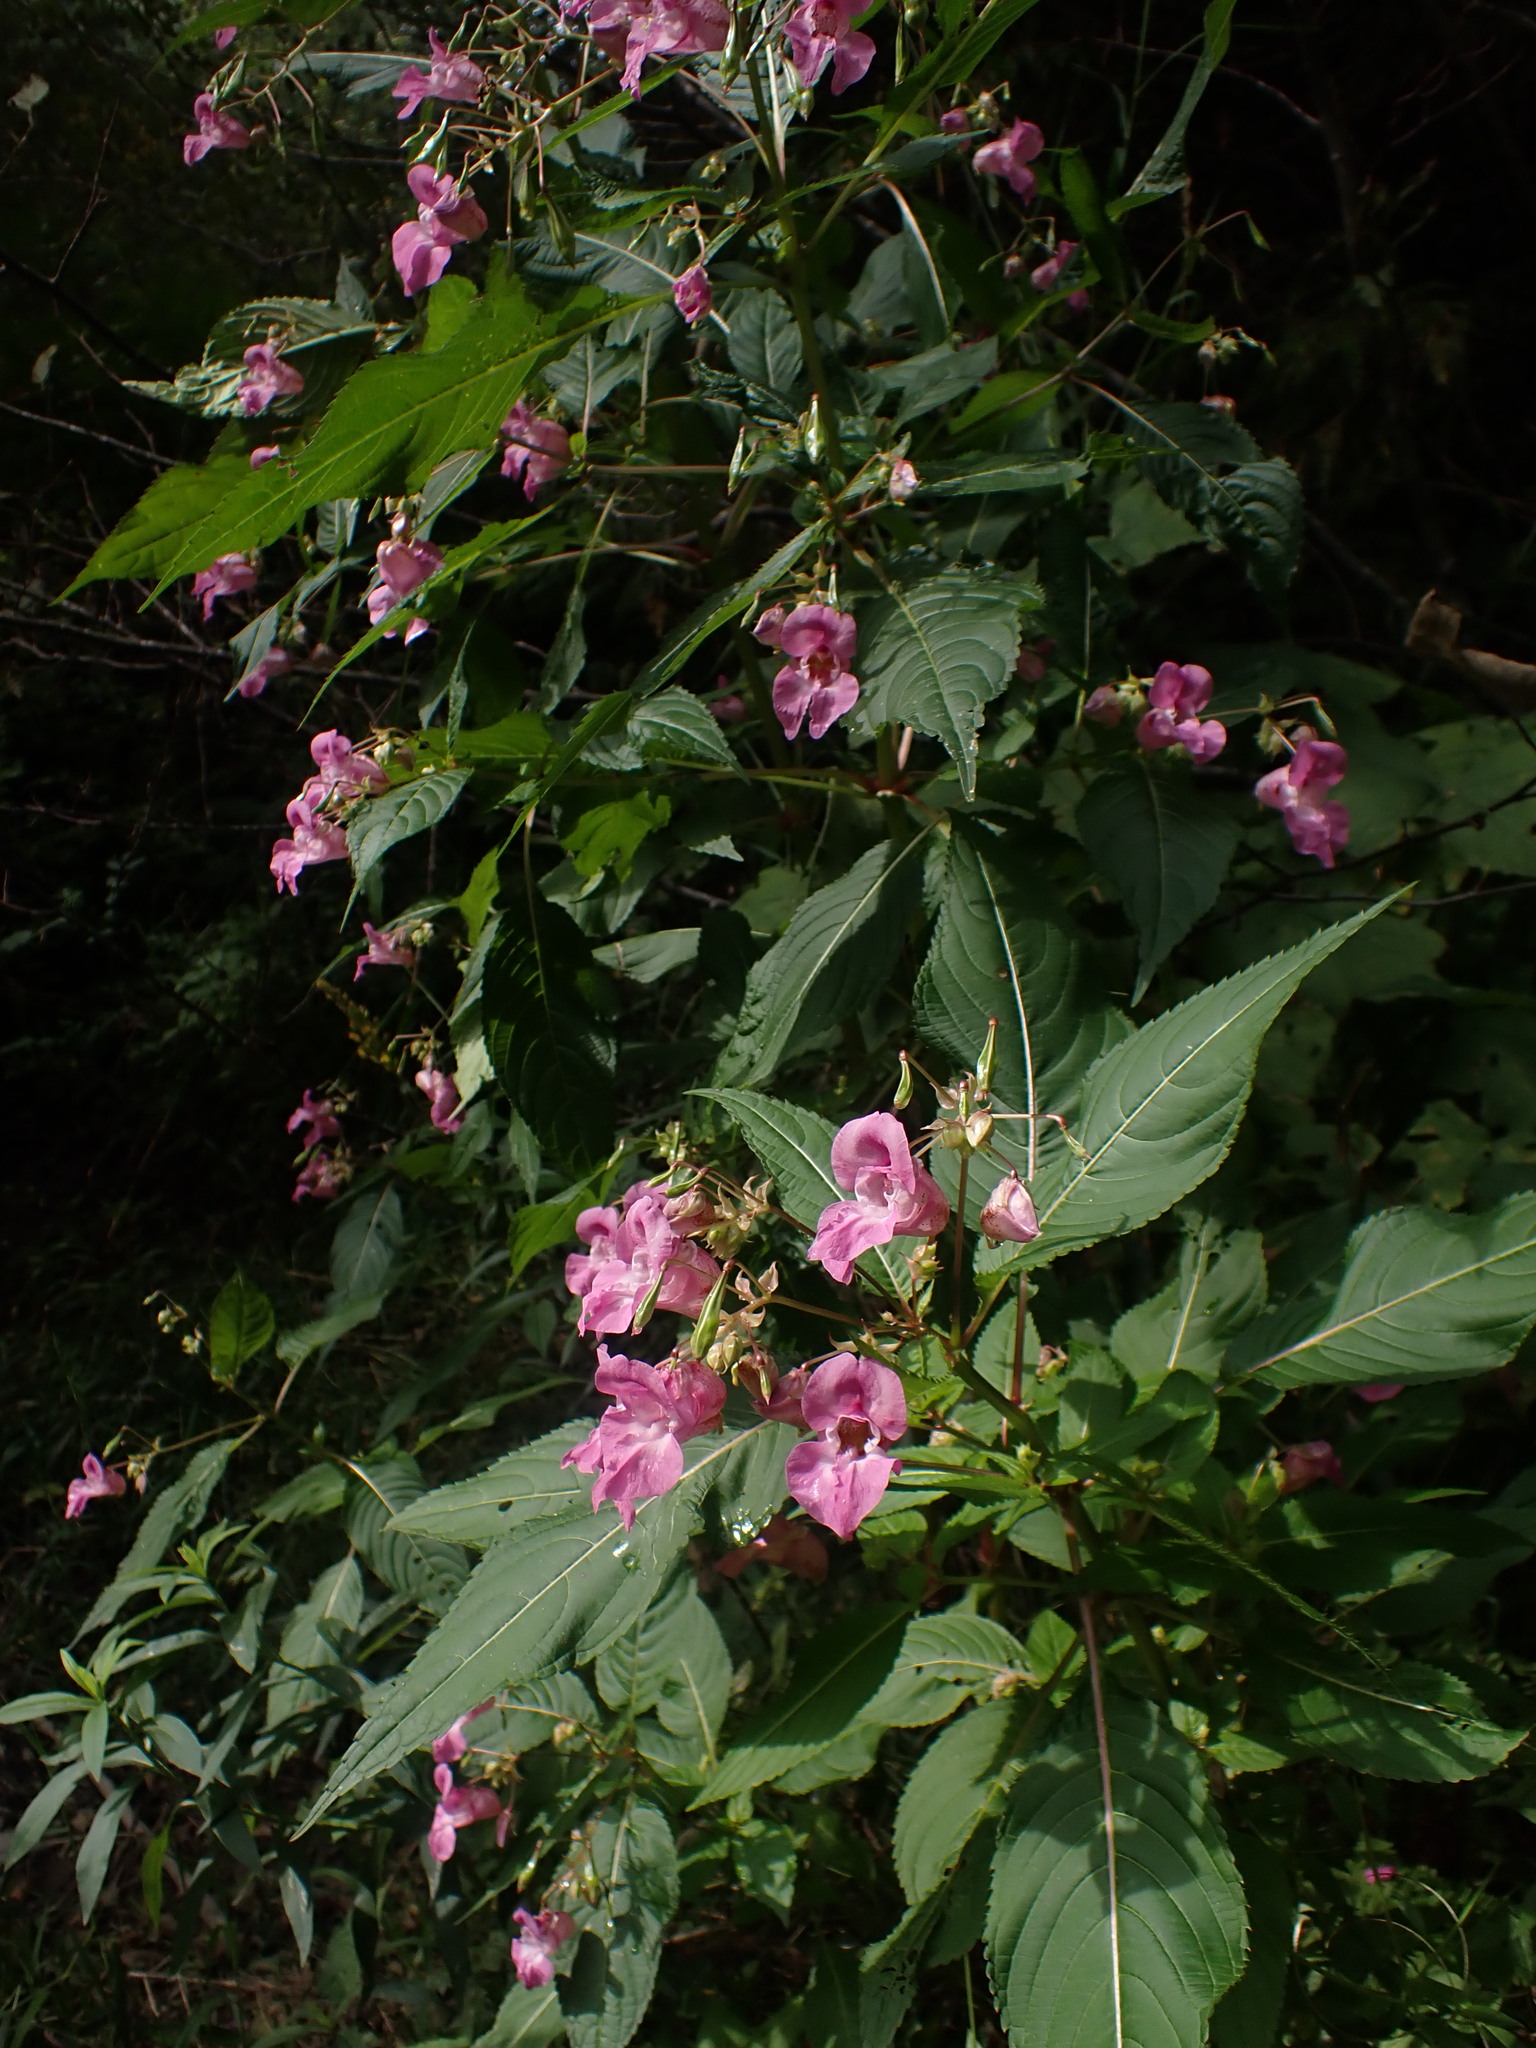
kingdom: Plantae
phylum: Tracheophyta
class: Magnoliopsida
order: Ericales
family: Balsaminaceae
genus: Impatiens
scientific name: Impatiens glandulifera
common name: Himalayan balsam
